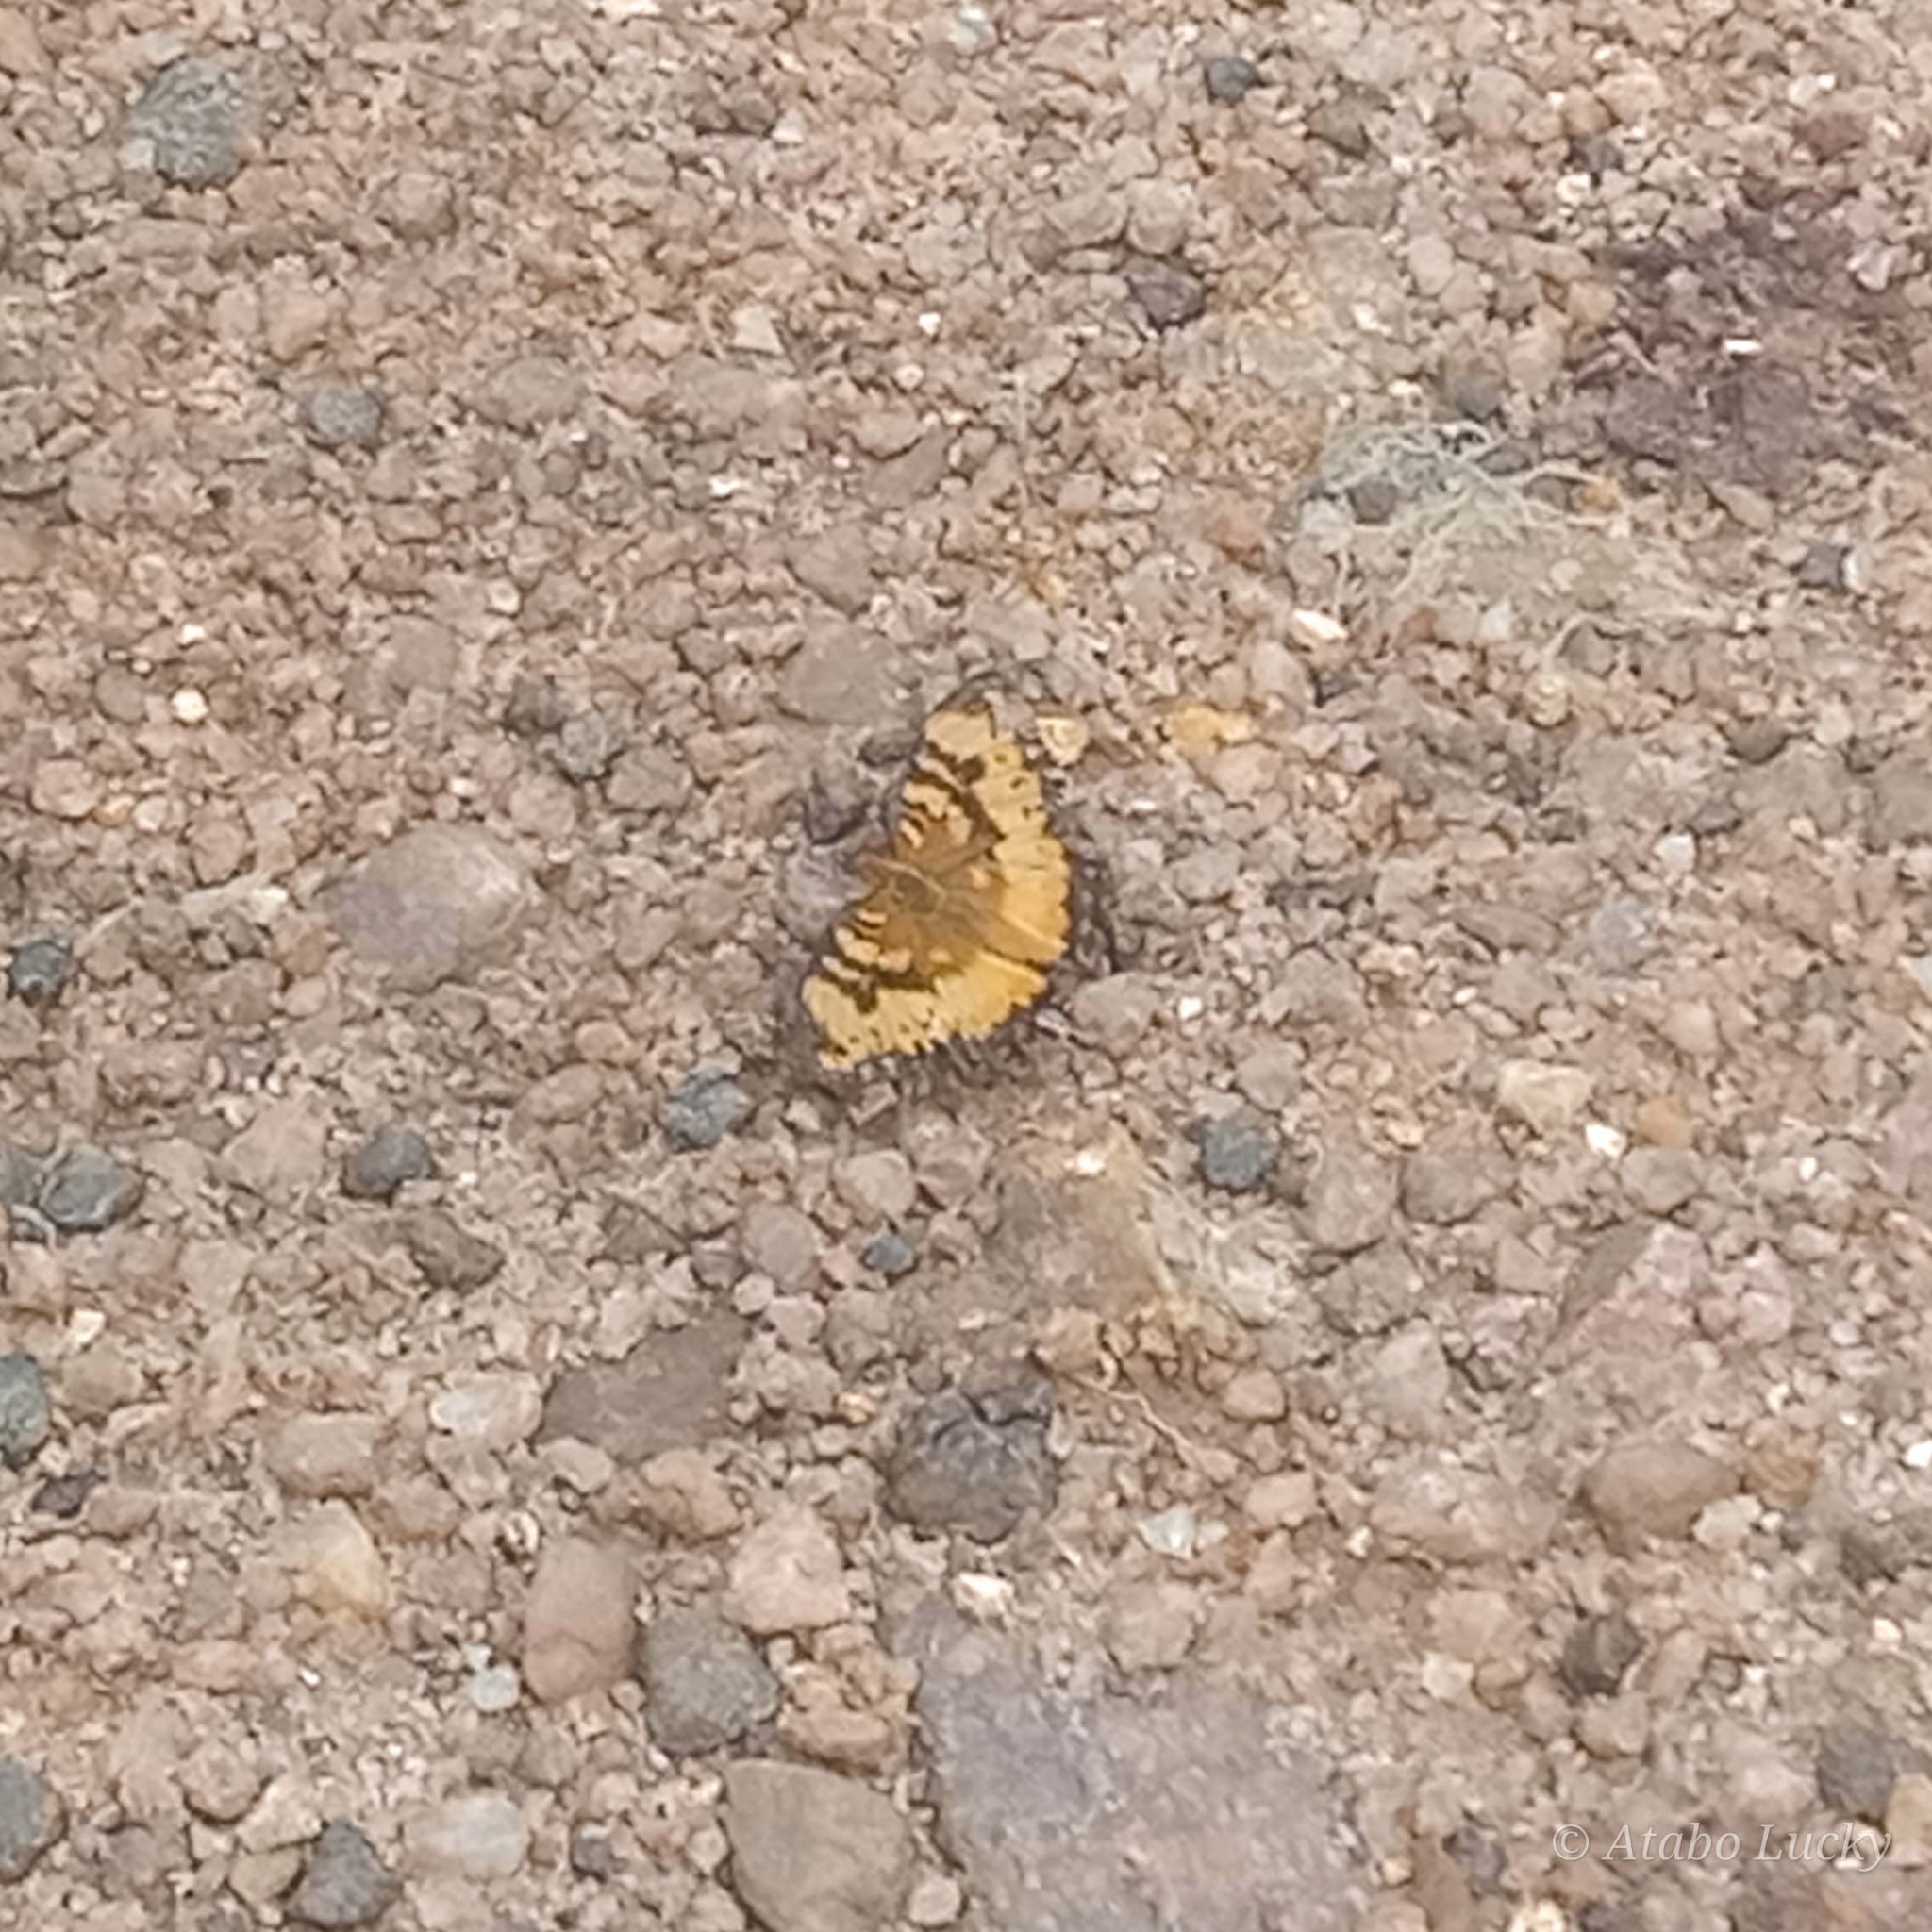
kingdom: Animalia
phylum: Arthropoda
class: Insecta
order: Lepidoptera
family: Nymphalidae
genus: Junonia
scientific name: Junonia antilope
